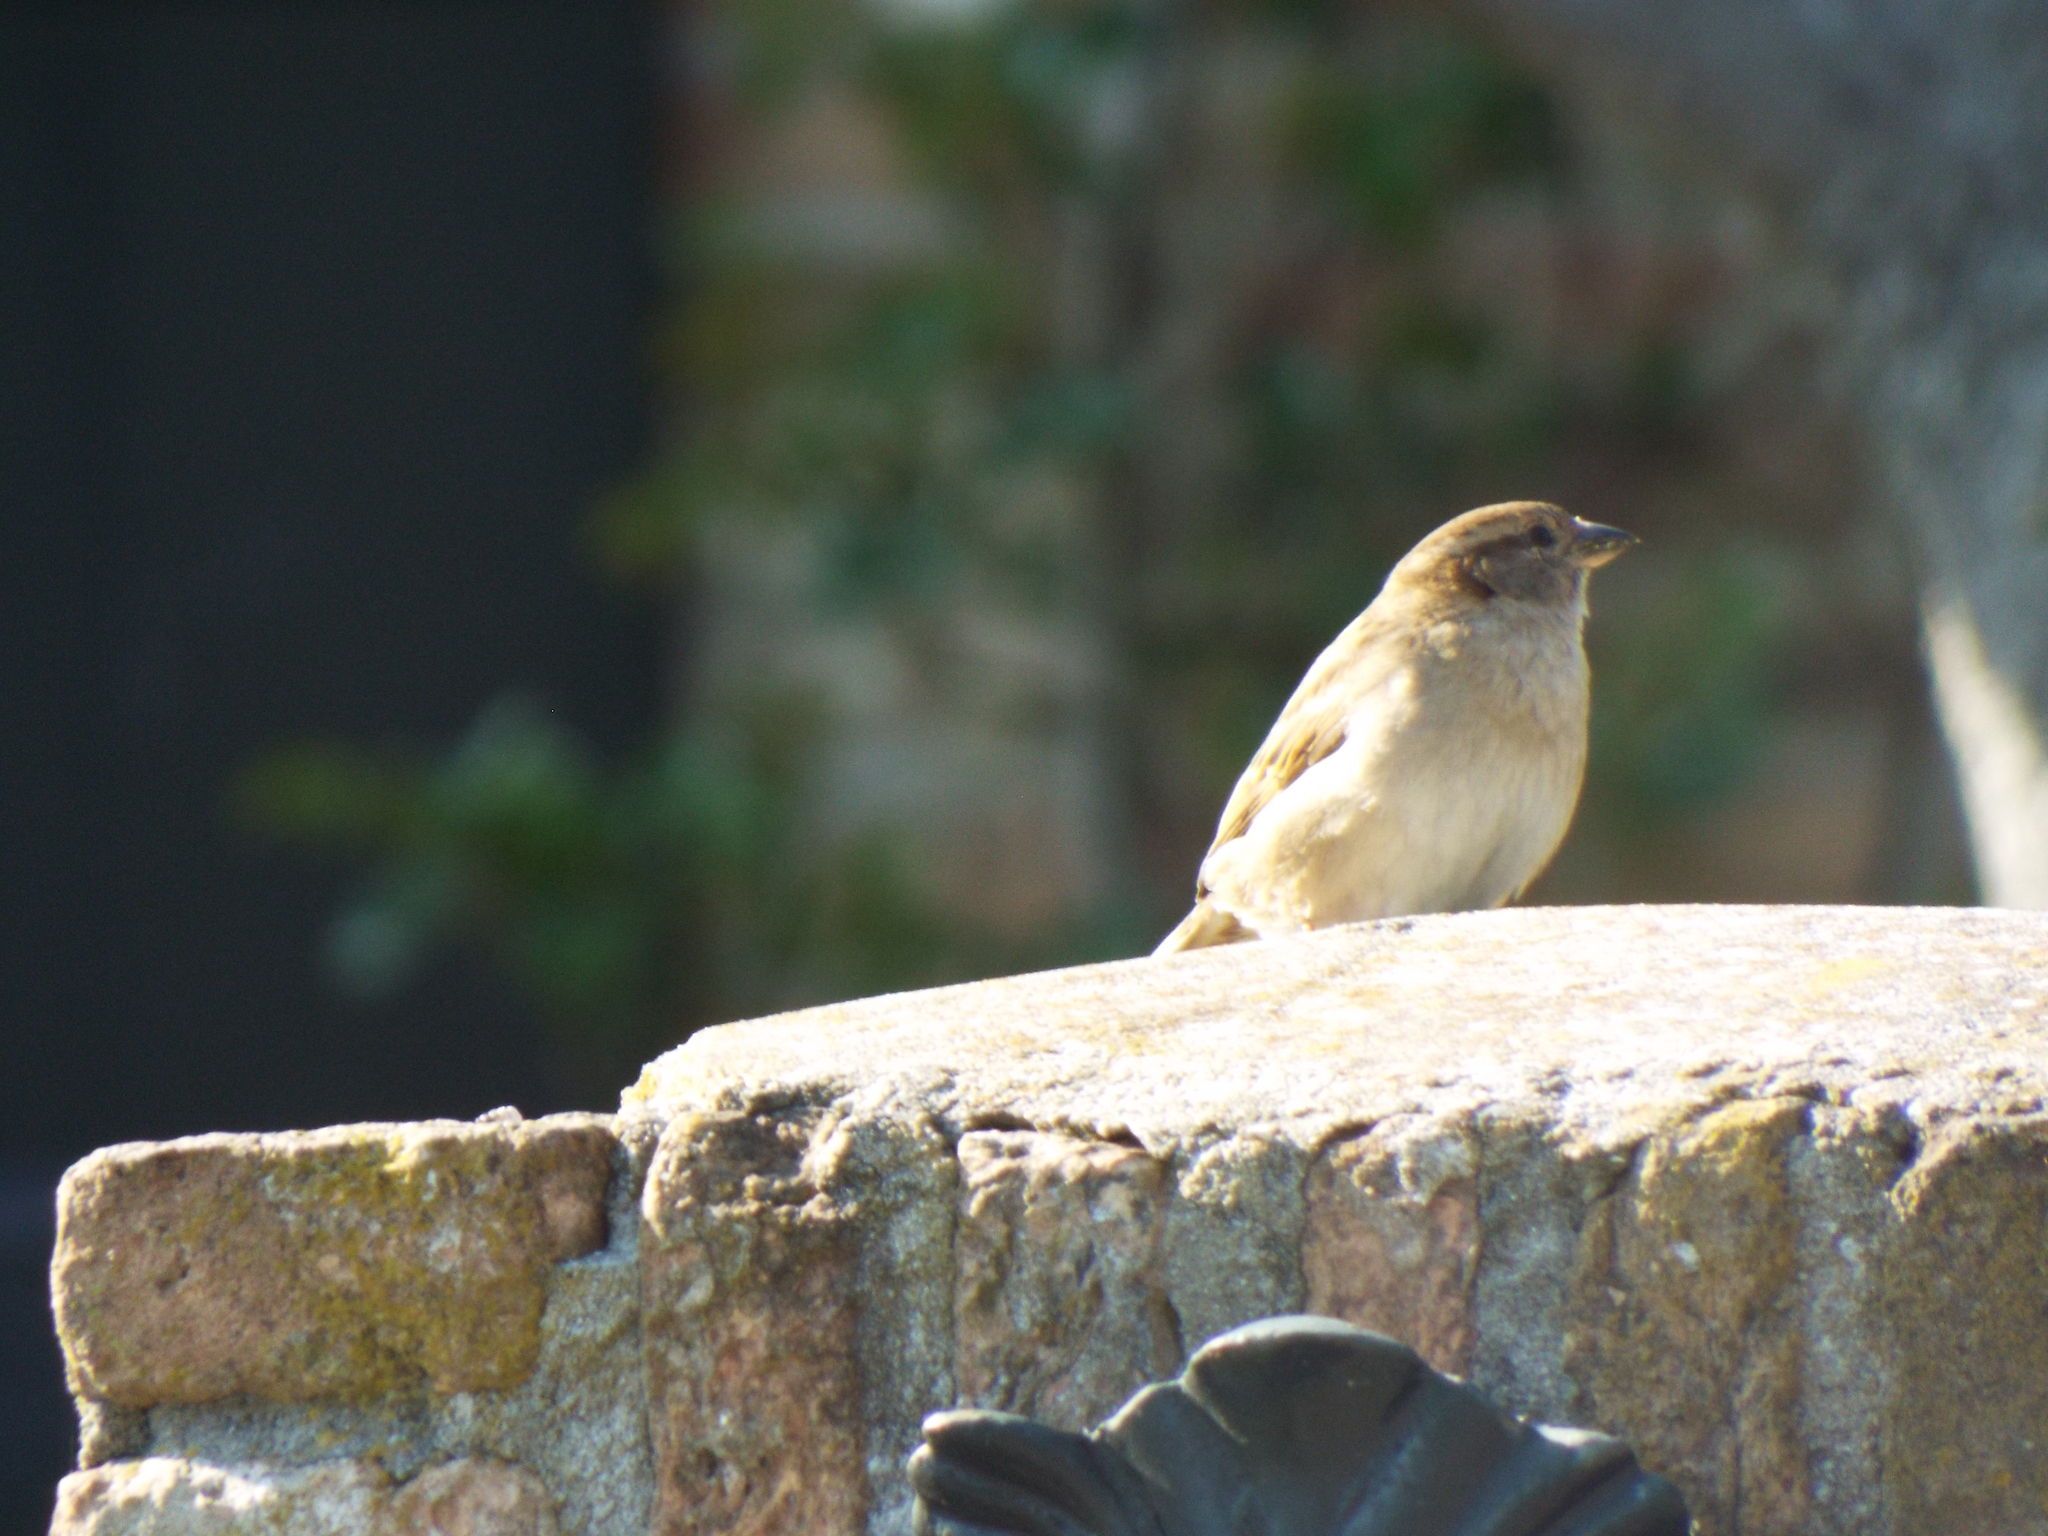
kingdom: Animalia
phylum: Chordata
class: Aves
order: Passeriformes
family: Passeridae
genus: Passer
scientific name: Passer domesticus
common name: House sparrow
